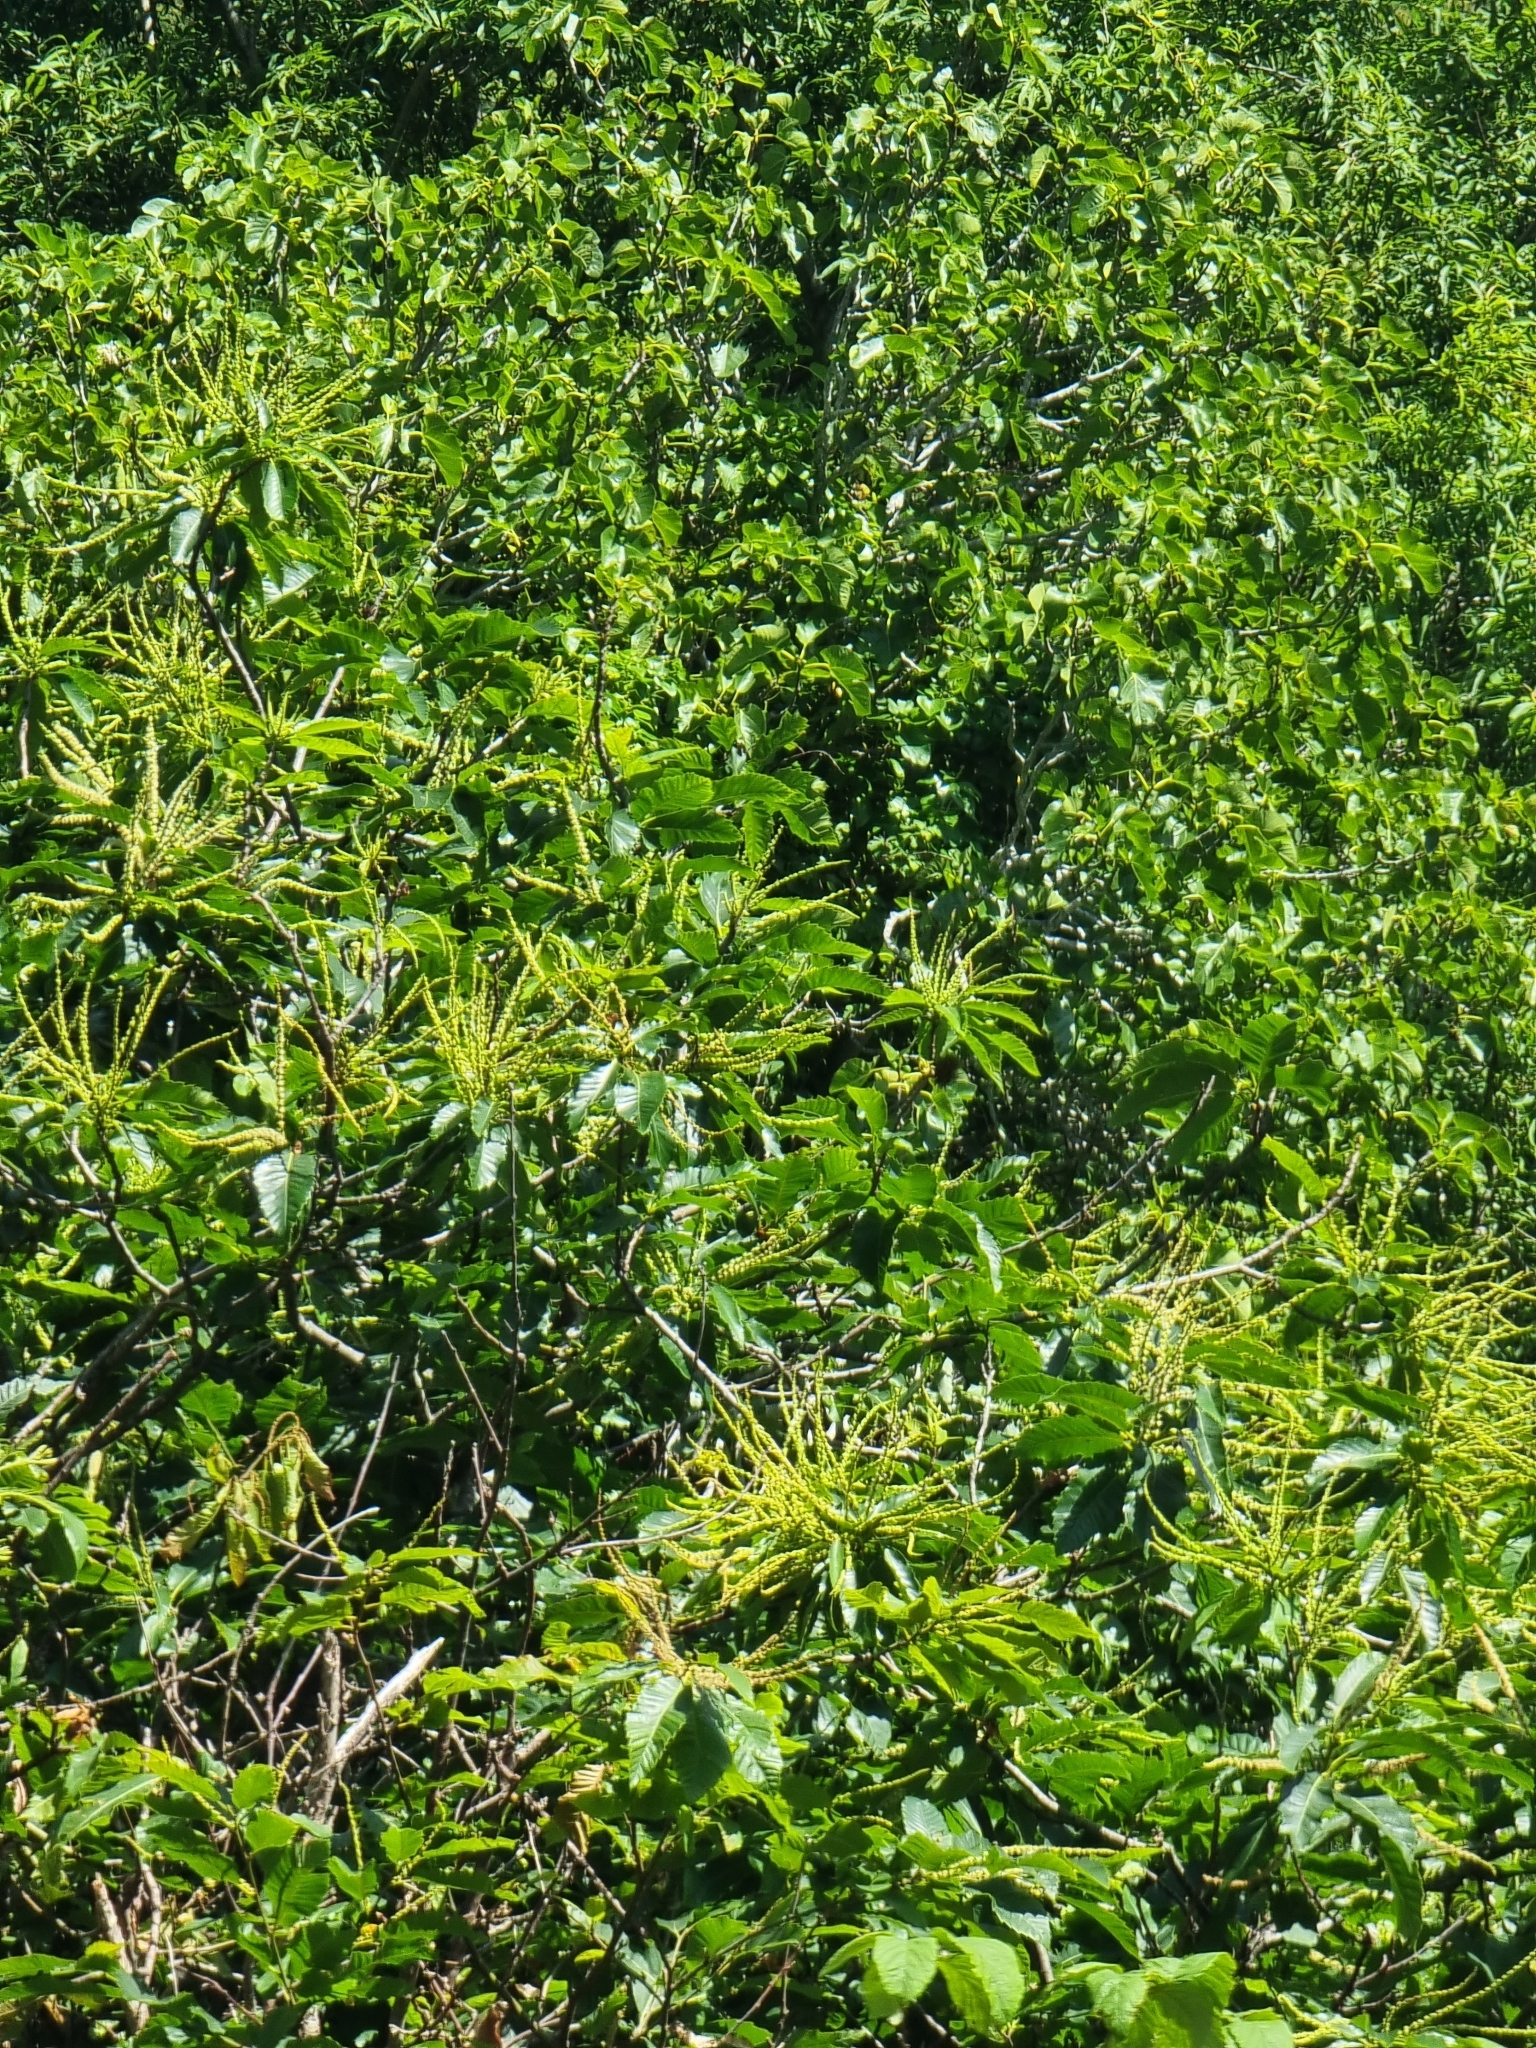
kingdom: Plantae
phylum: Tracheophyta
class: Magnoliopsida
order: Fagales
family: Fagaceae
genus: Castanea
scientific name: Castanea sativa
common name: Sweet chestnut
